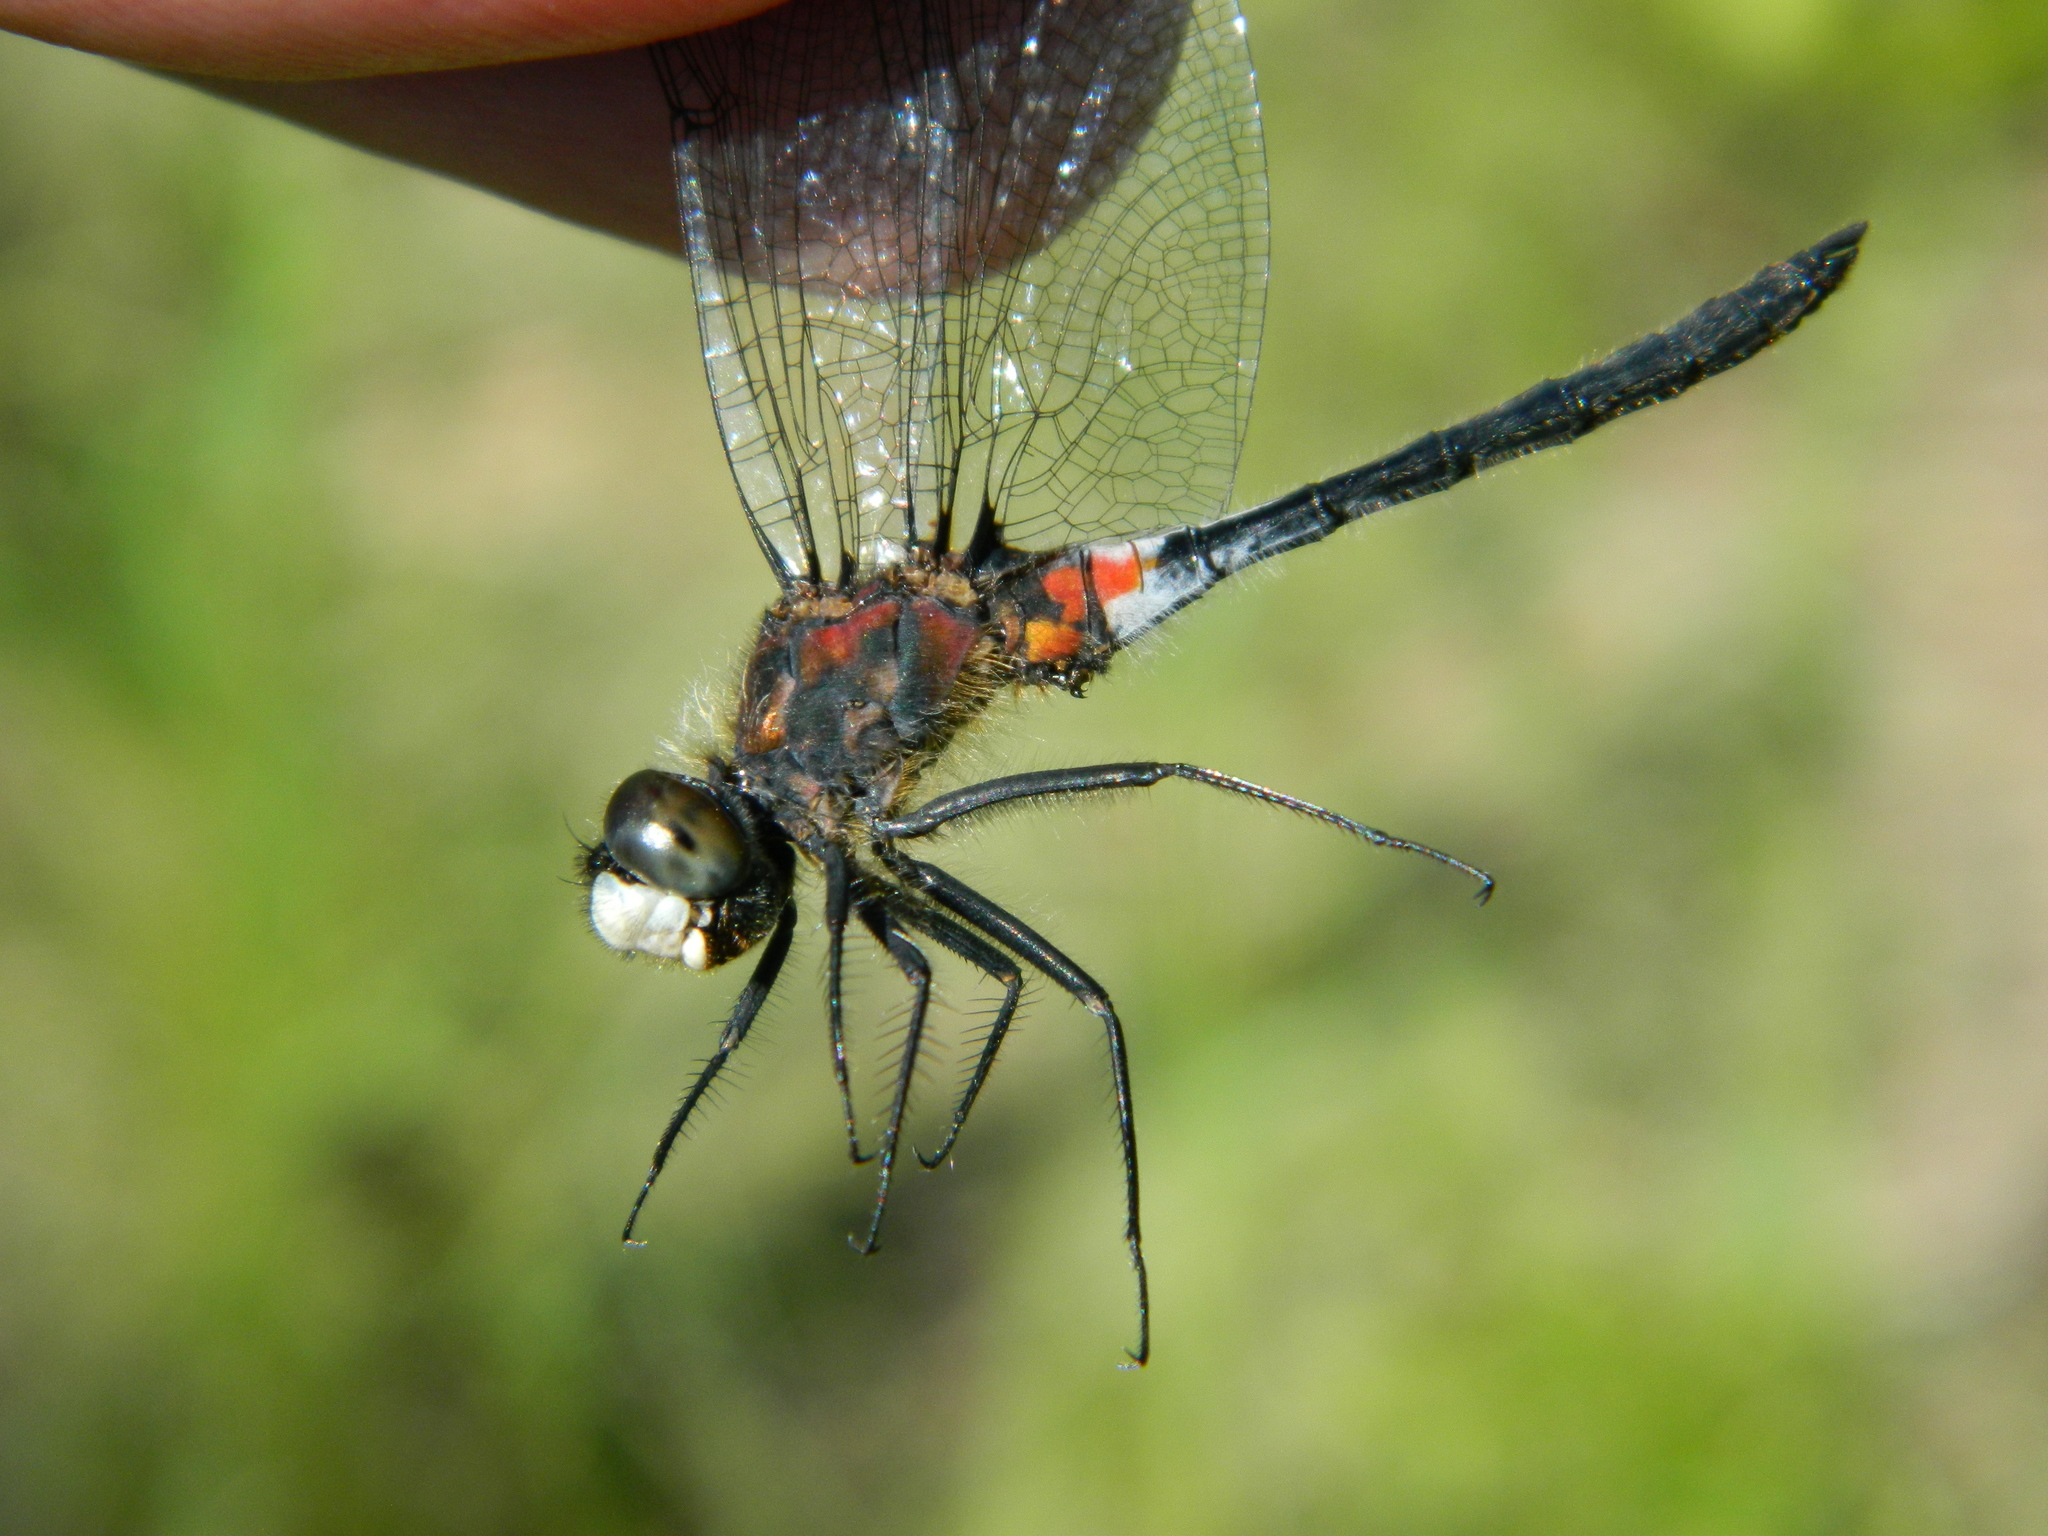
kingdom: Animalia
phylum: Arthropoda
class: Insecta
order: Odonata
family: Libellulidae
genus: Leucorrhinia
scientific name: Leucorrhinia proxima
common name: Belted whiteface
